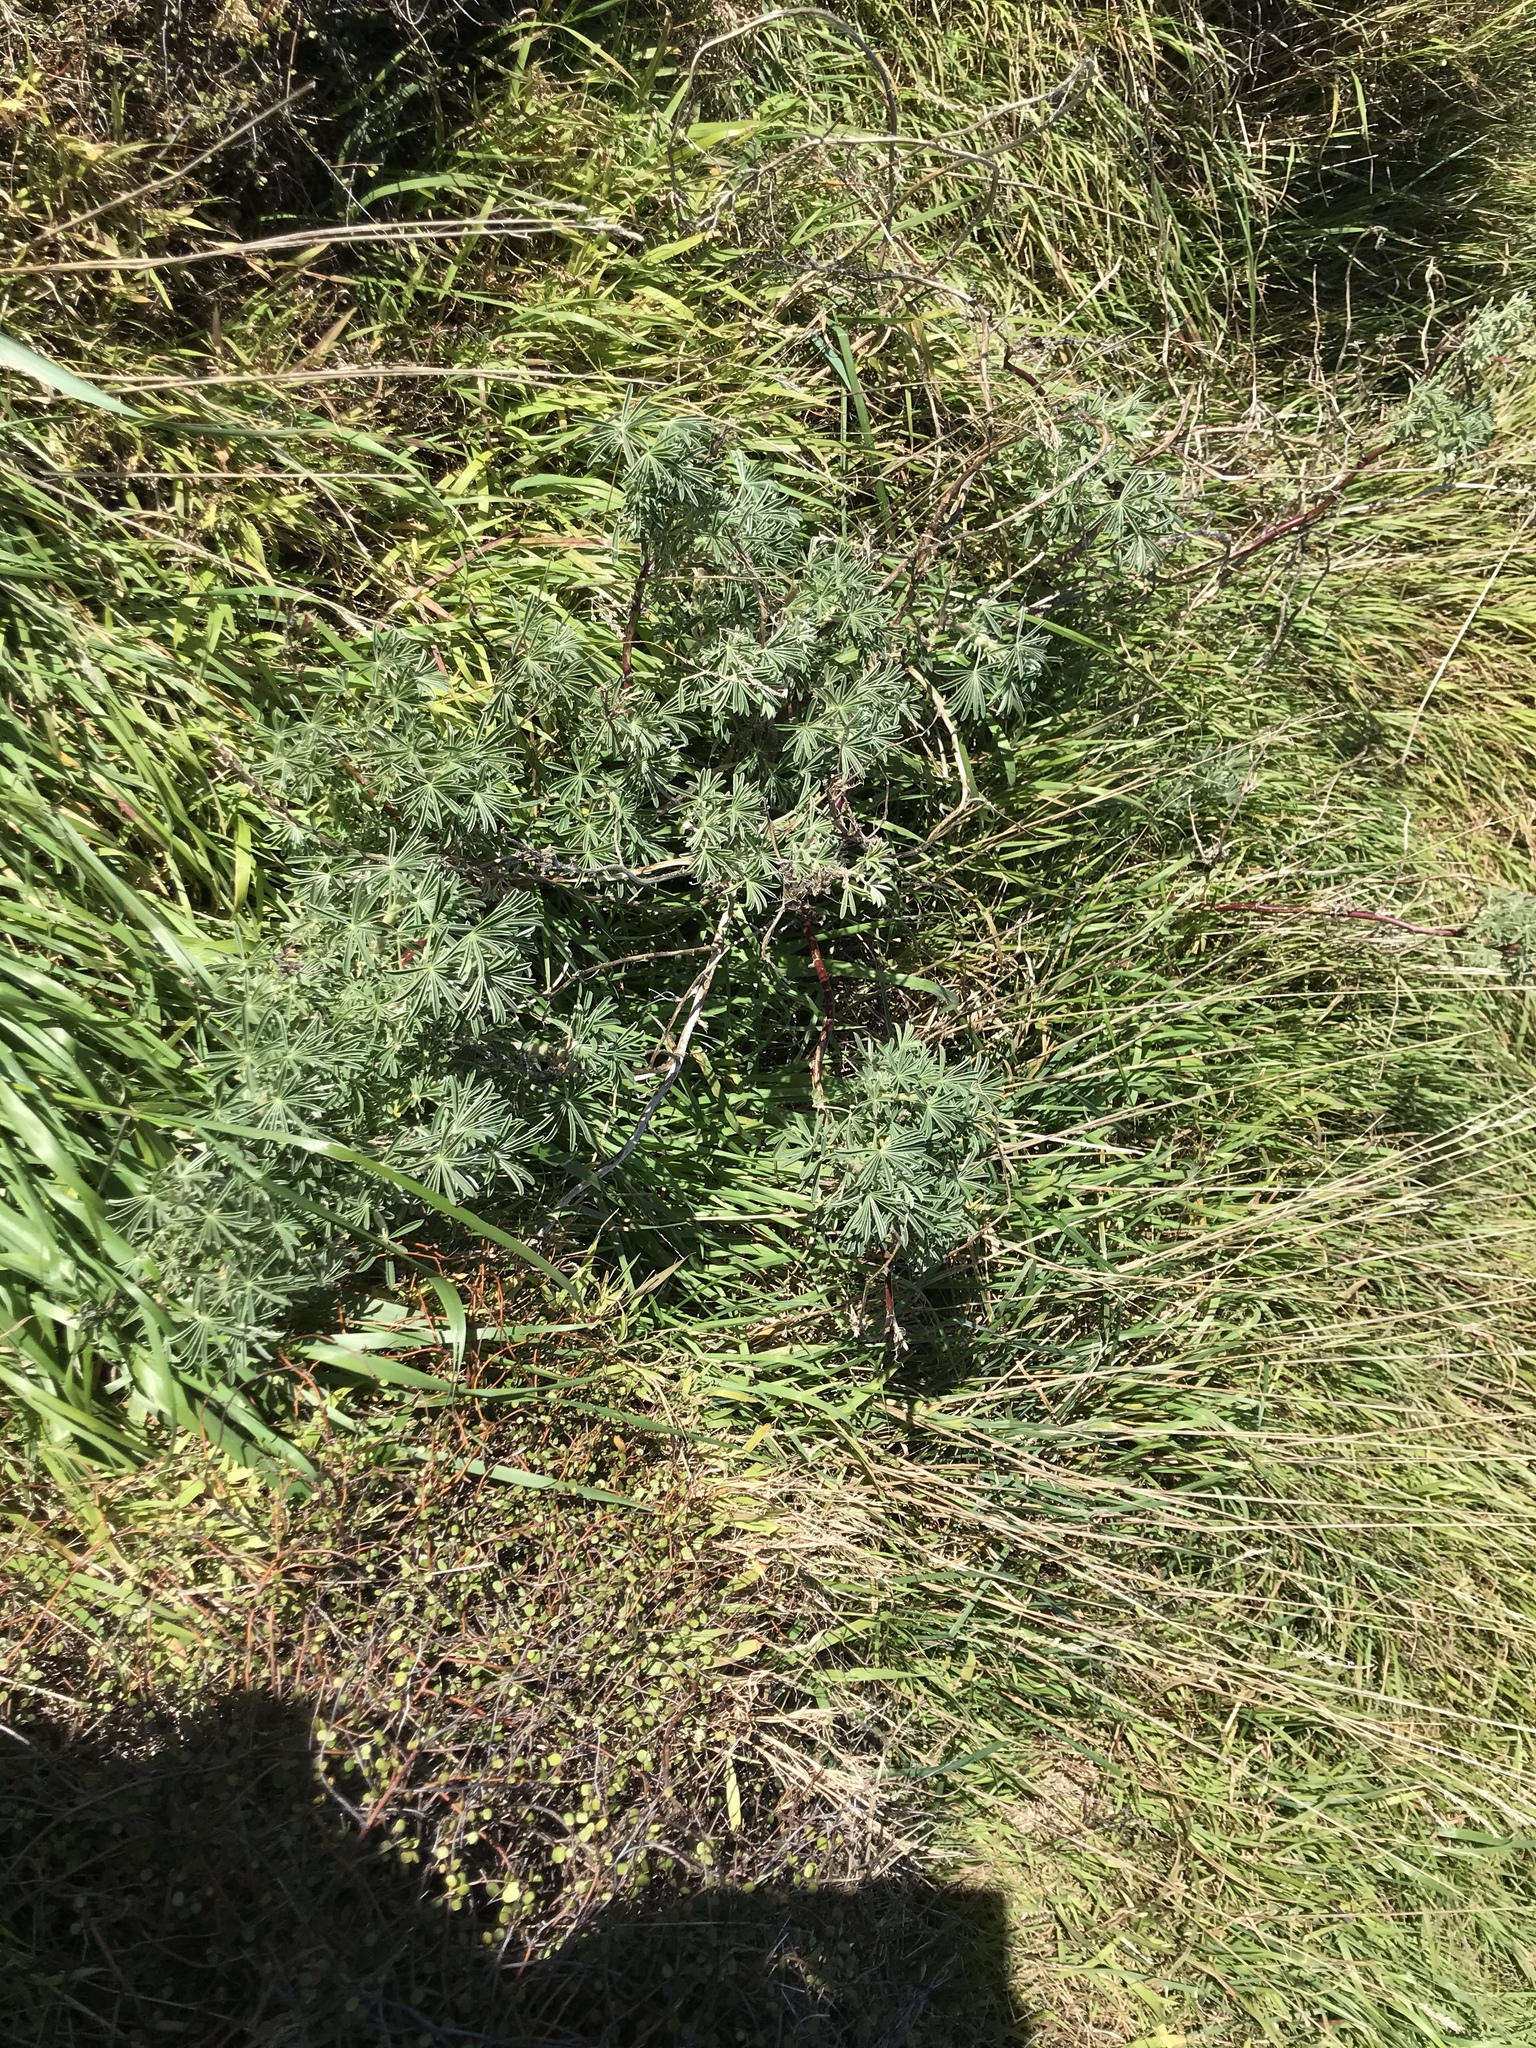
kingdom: Plantae
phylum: Tracheophyta
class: Magnoliopsida
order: Fabales
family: Fabaceae
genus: Lupinus
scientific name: Lupinus arboreus
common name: Yellow bush lupine
